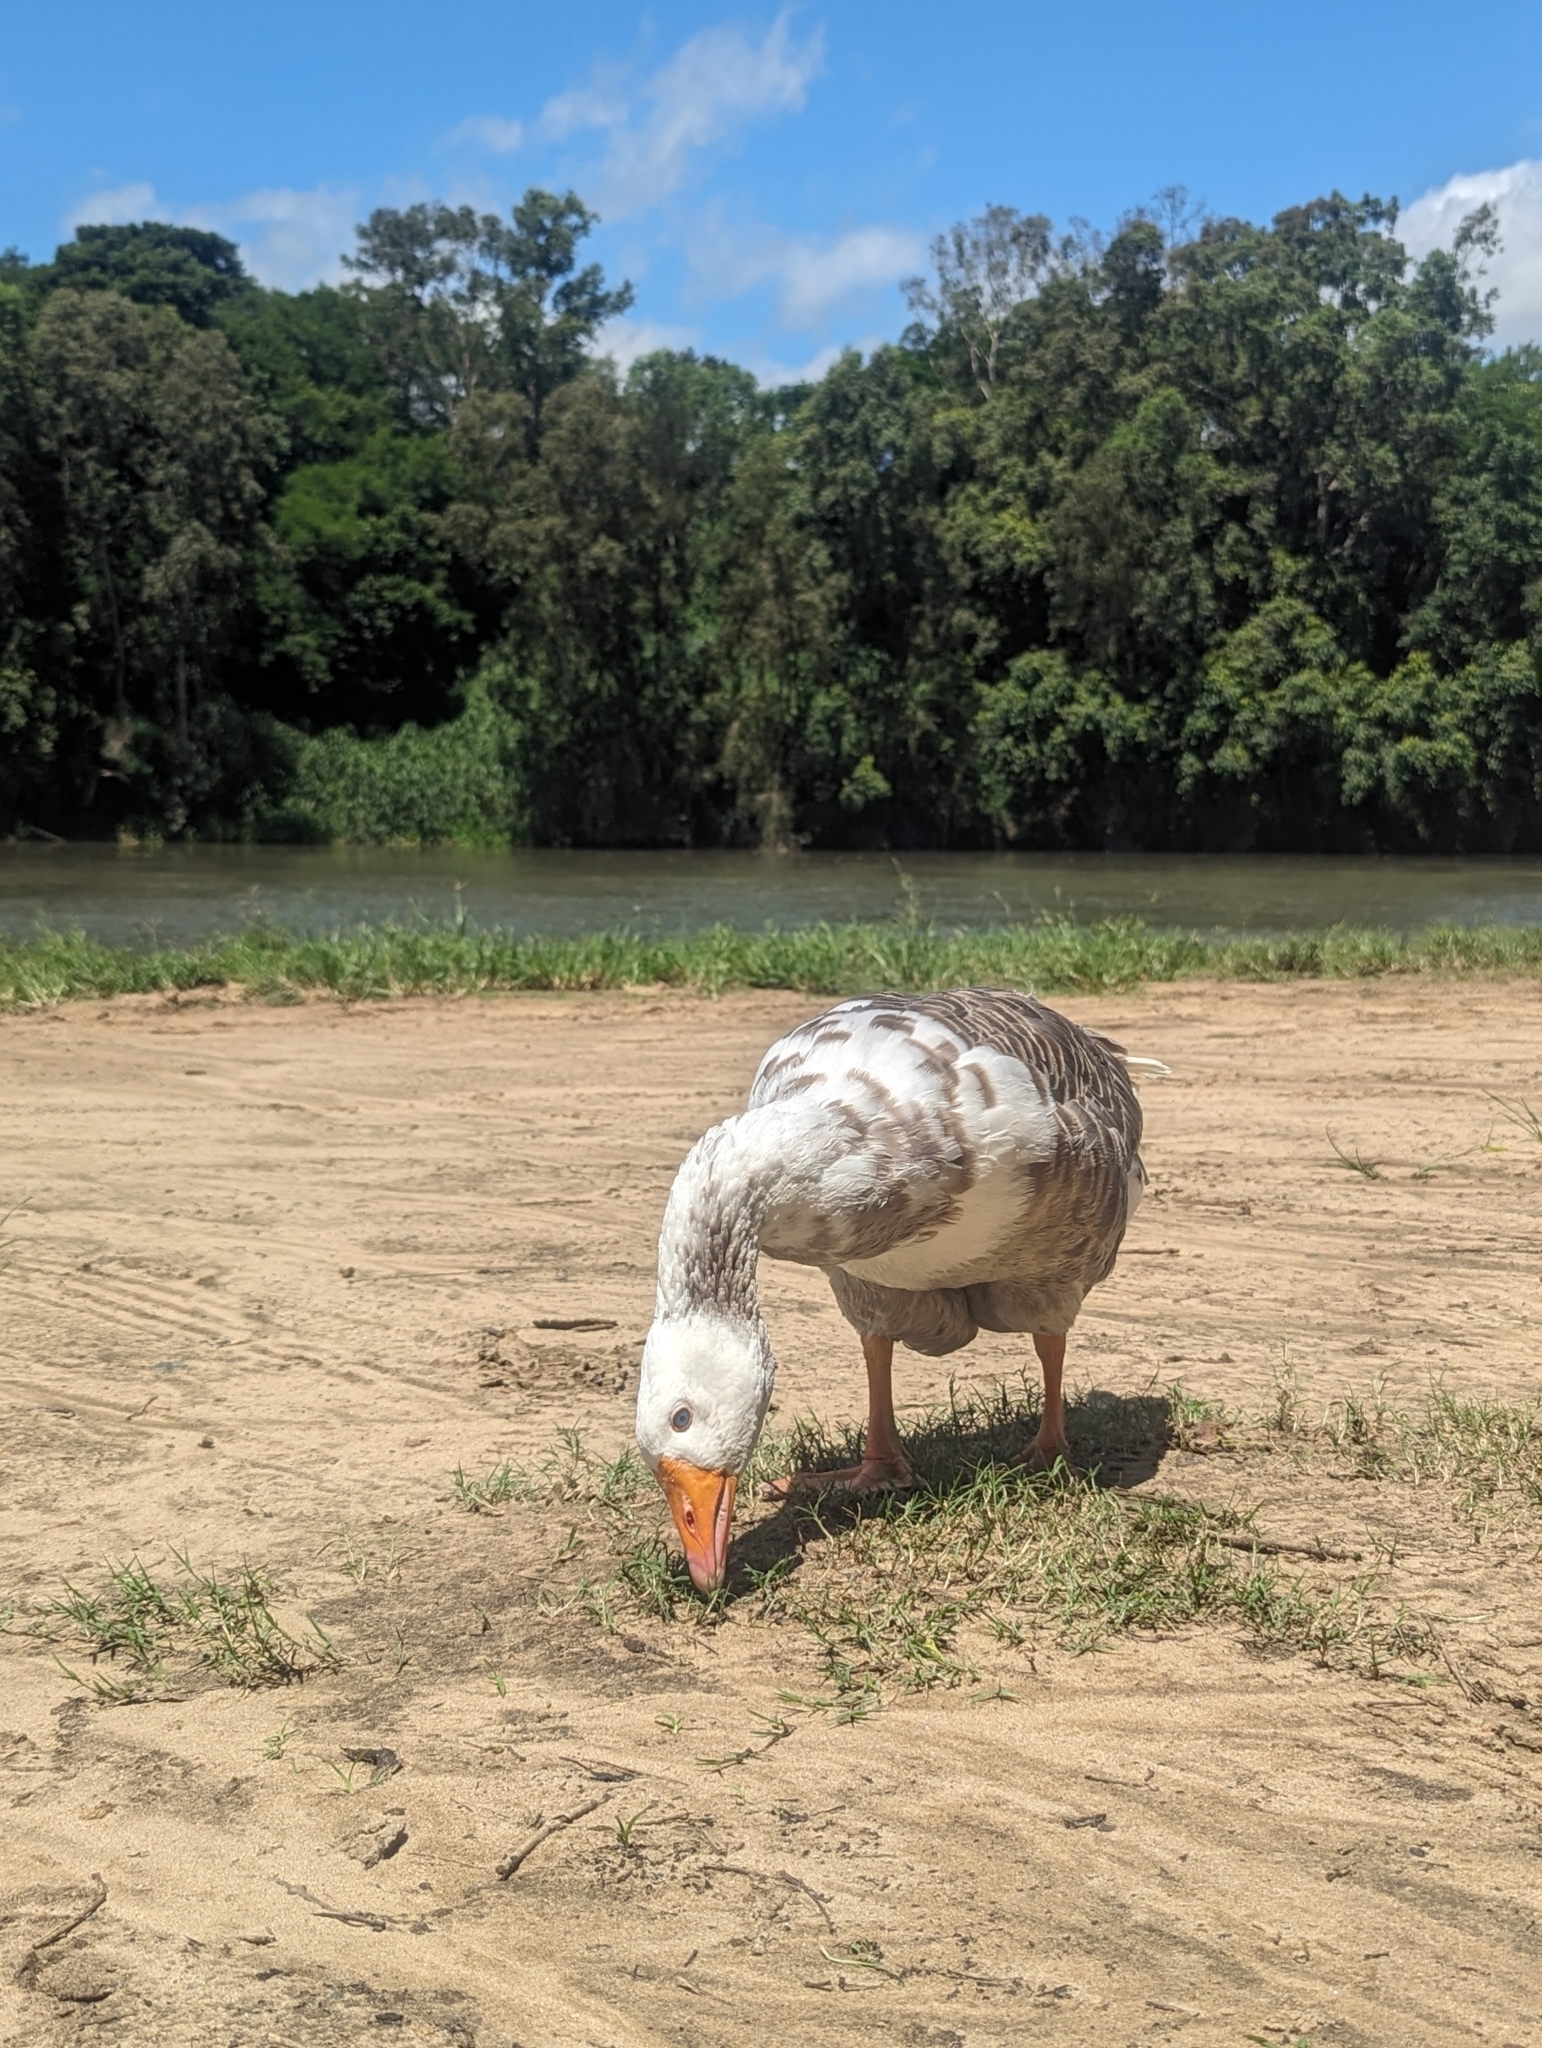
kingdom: Animalia
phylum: Chordata
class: Aves
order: Anseriformes
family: Anatidae
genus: Anser
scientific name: Anser anser
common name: Greylag goose
